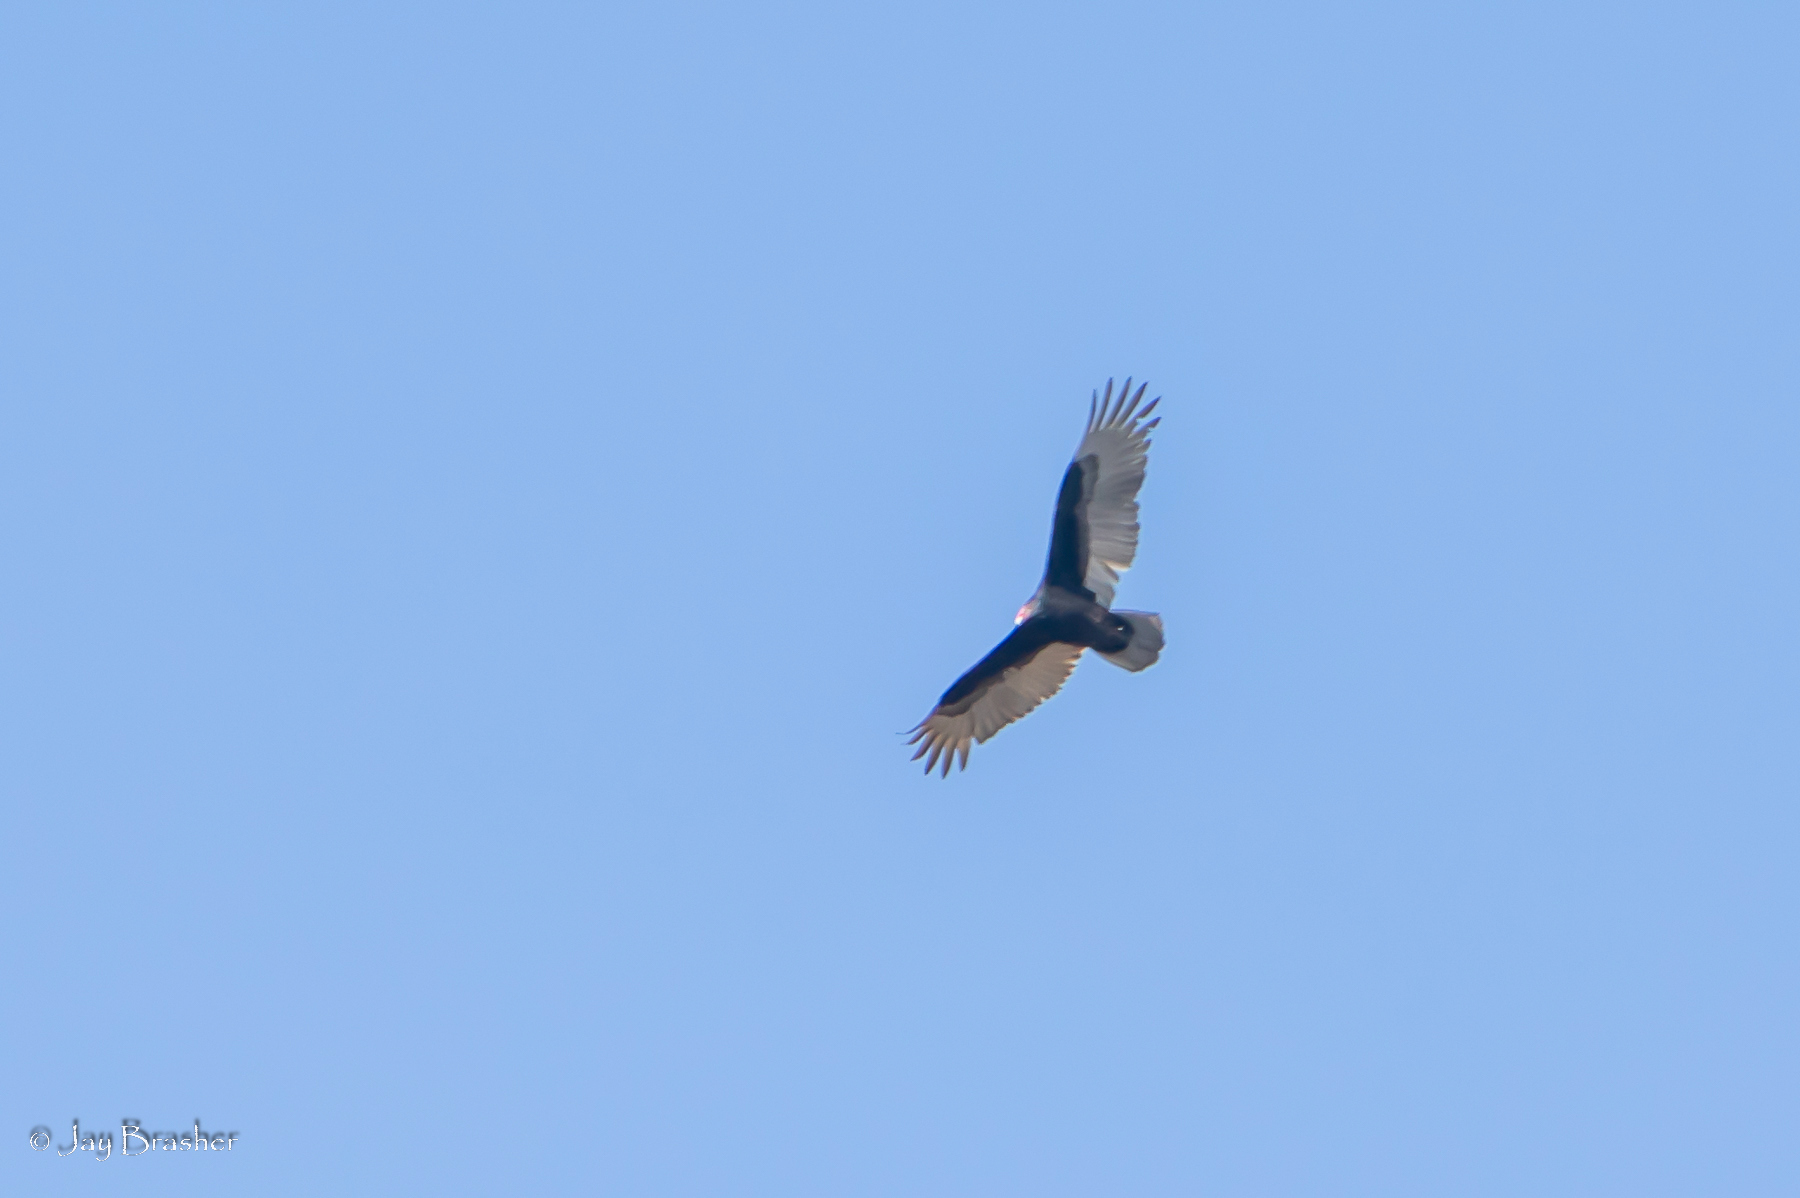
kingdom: Animalia
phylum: Chordata
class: Aves
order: Accipitriformes
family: Cathartidae
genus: Cathartes
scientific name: Cathartes aura
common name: Turkey vulture
